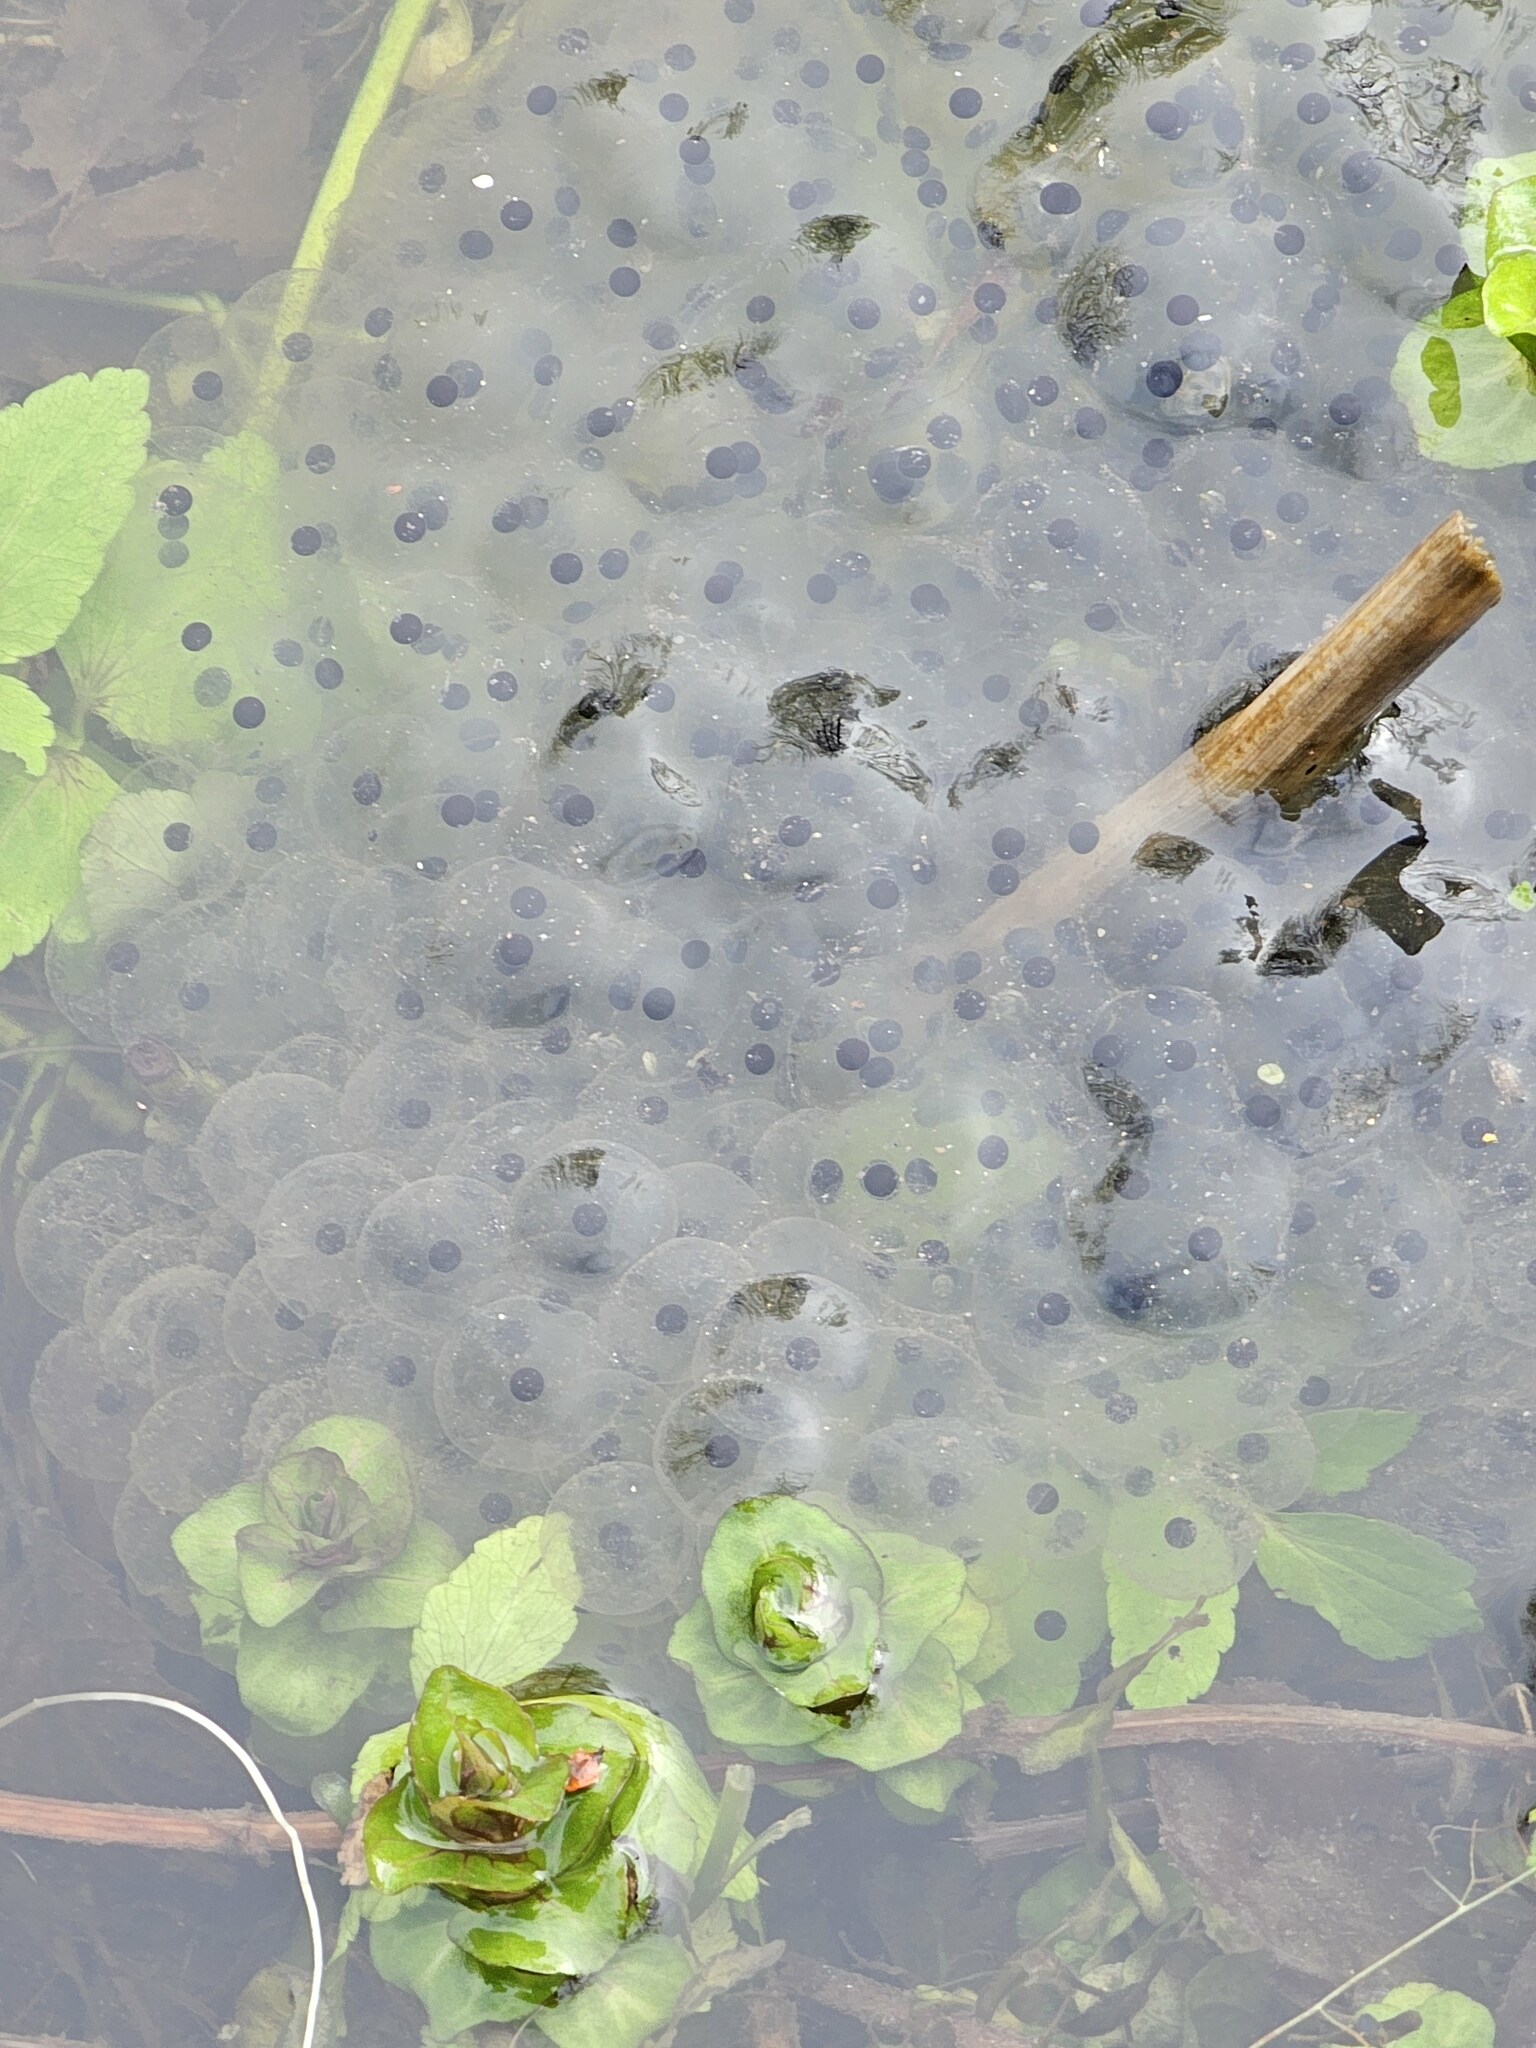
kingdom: Animalia
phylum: Chordata
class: Amphibia
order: Anura
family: Ranidae
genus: Rana
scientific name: Rana temporaria
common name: Common frog
